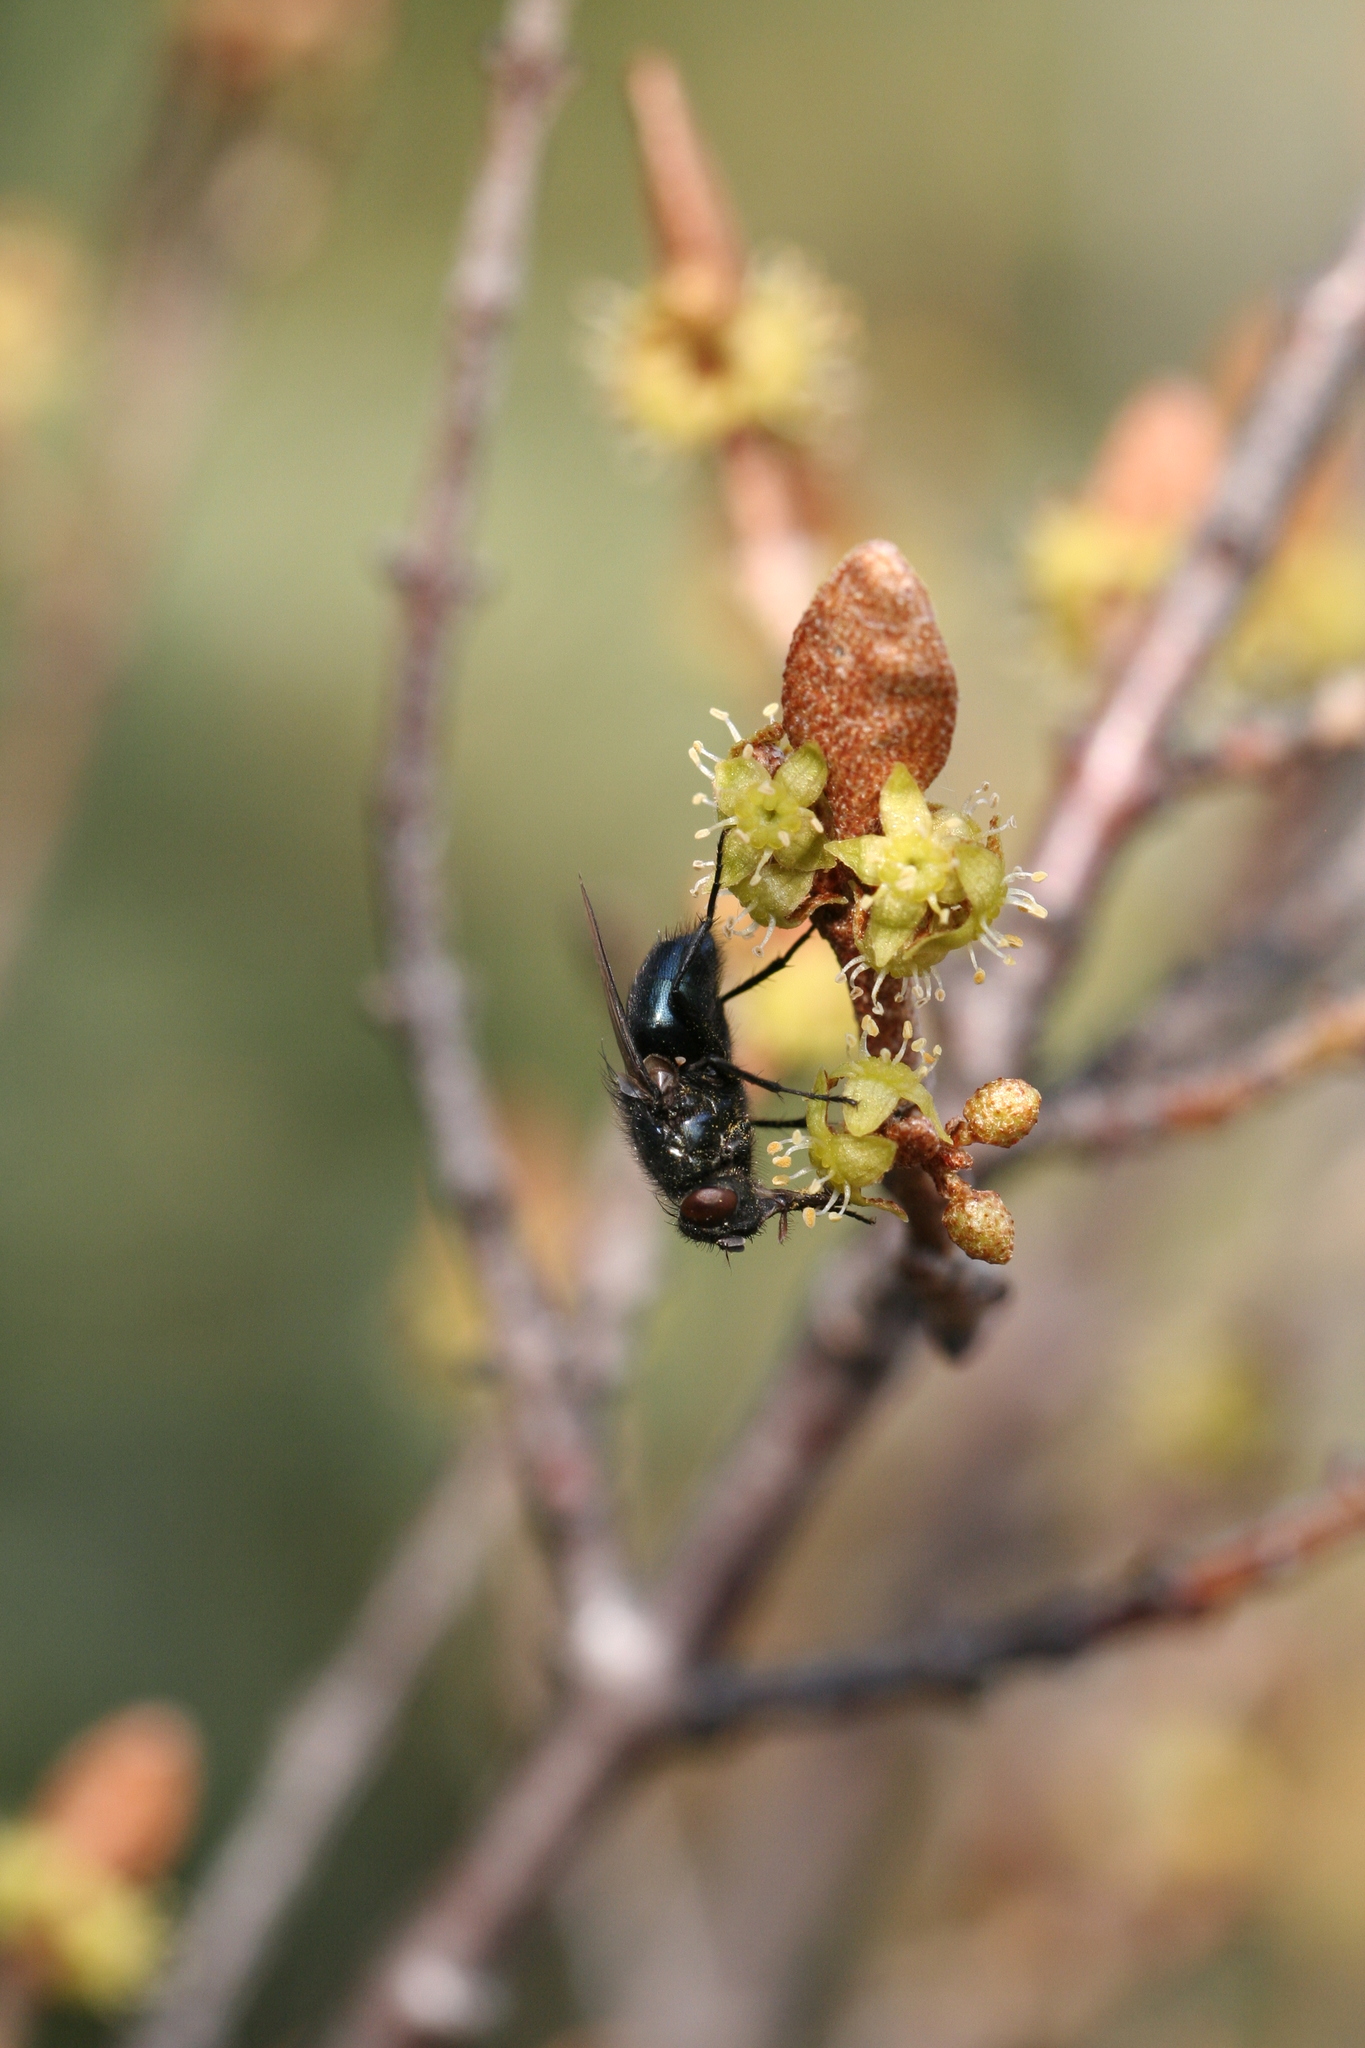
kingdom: Animalia
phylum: Arthropoda
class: Insecta
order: Diptera
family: Calliphoridae
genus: Protophormia
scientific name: Protophormia terraenovae
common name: Blackbottle
